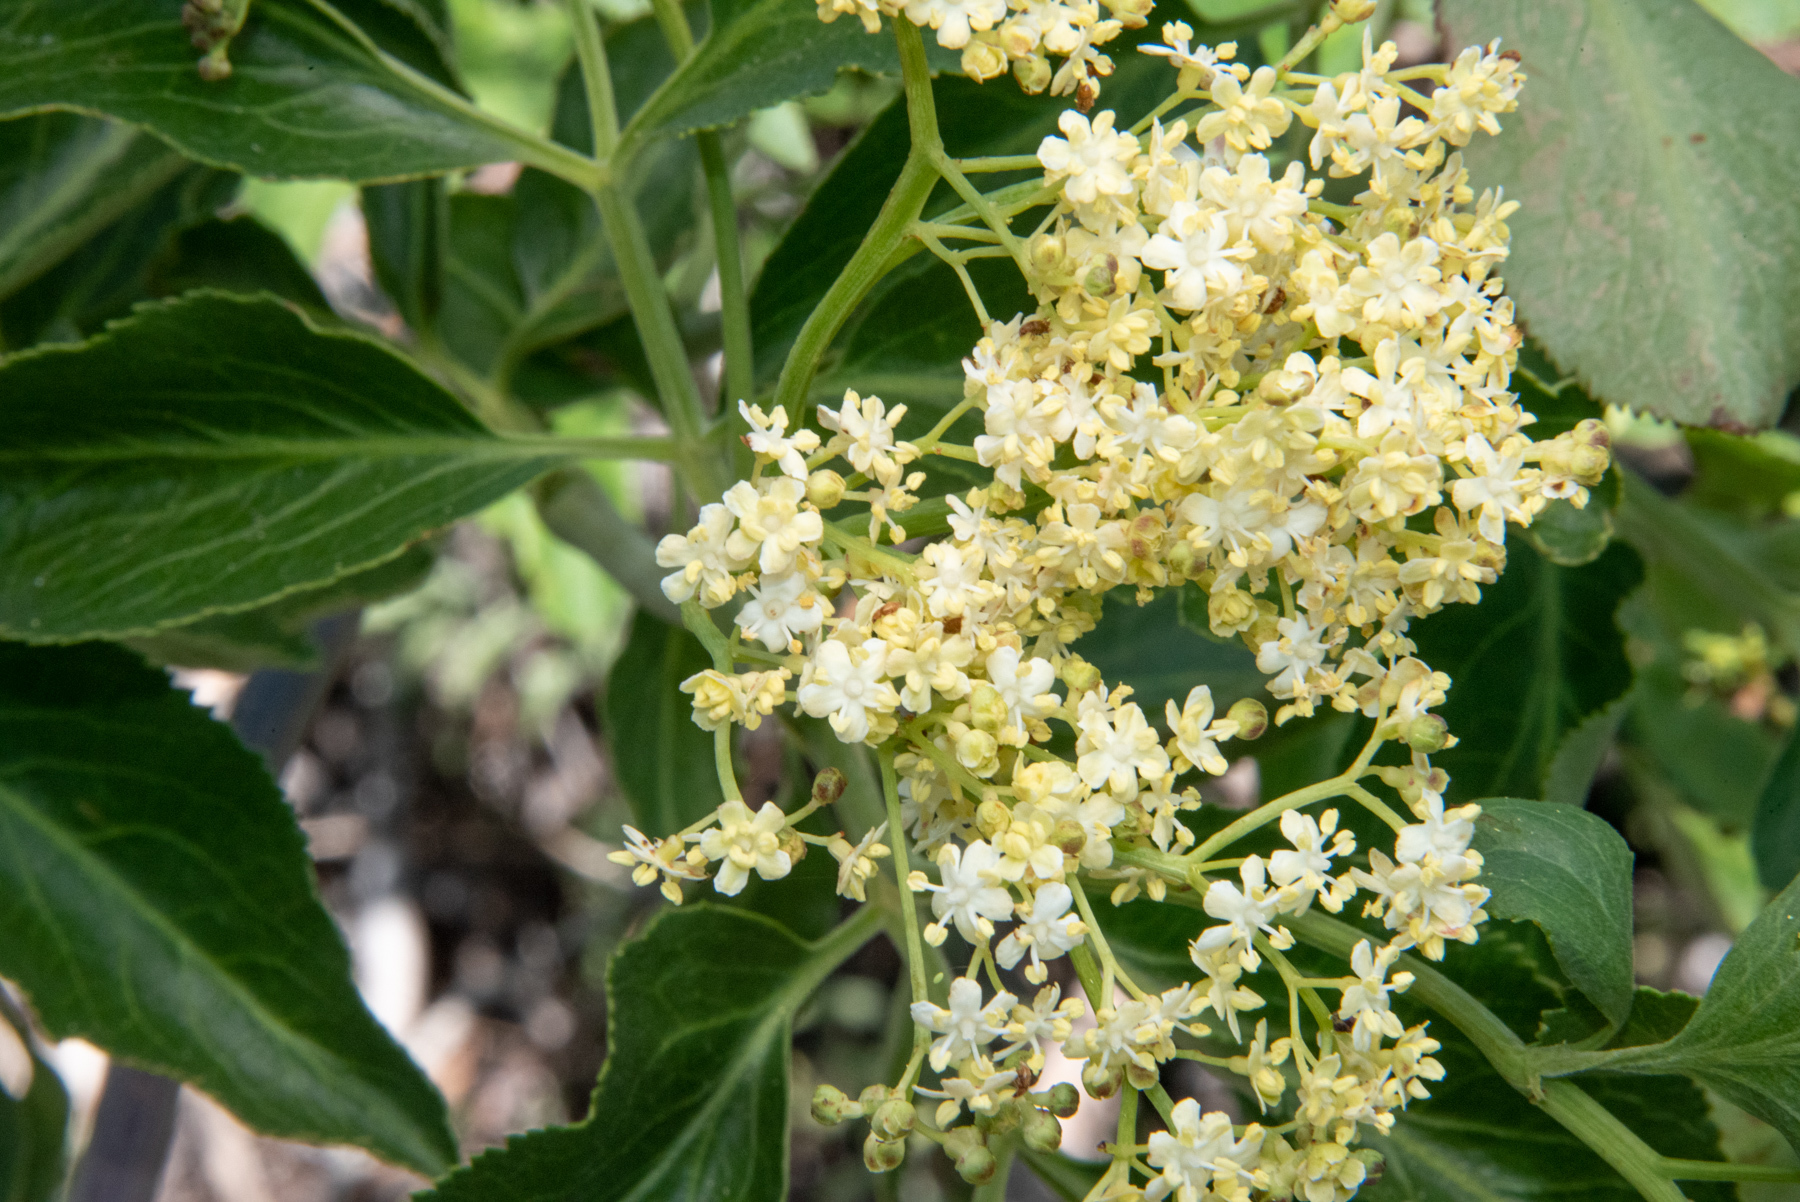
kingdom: Plantae
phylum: Tracheophyta
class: Magnoliopsida
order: Dipsacales
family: Viburnaceae
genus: Sambucus
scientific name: Sambucus cerulea
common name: Blue elder
